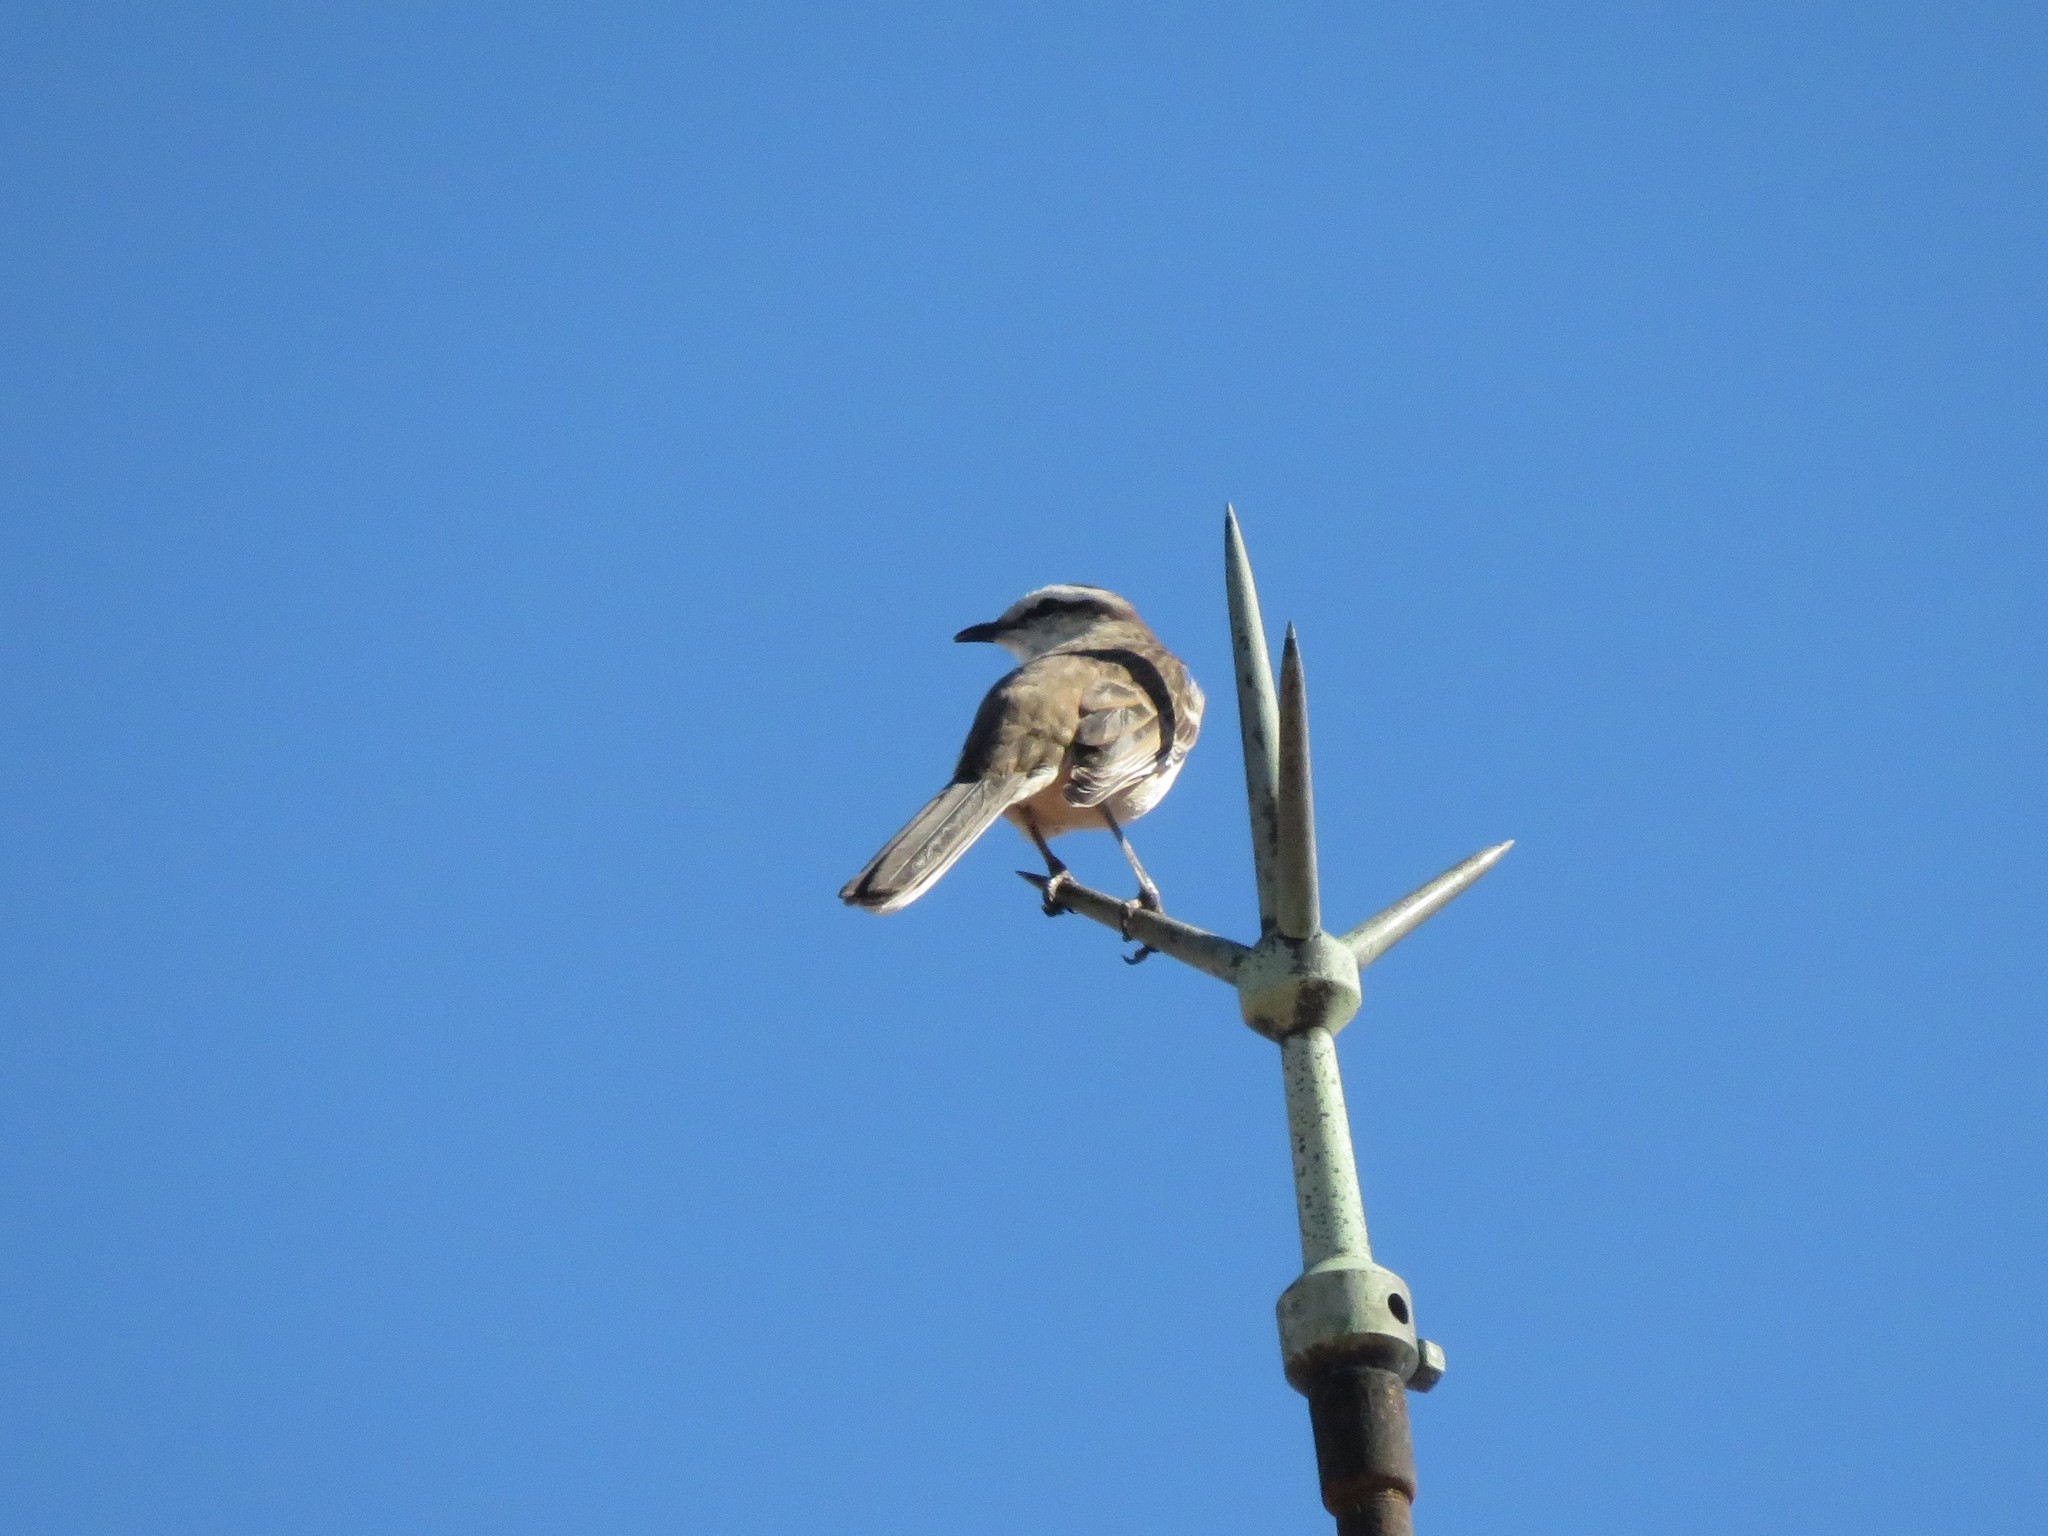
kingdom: Animalia
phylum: Chordata
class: Aves
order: Passeriformes
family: Mimidae
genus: Mimus
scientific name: Mimus saturninus
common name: Chalk-browed mockingbird
